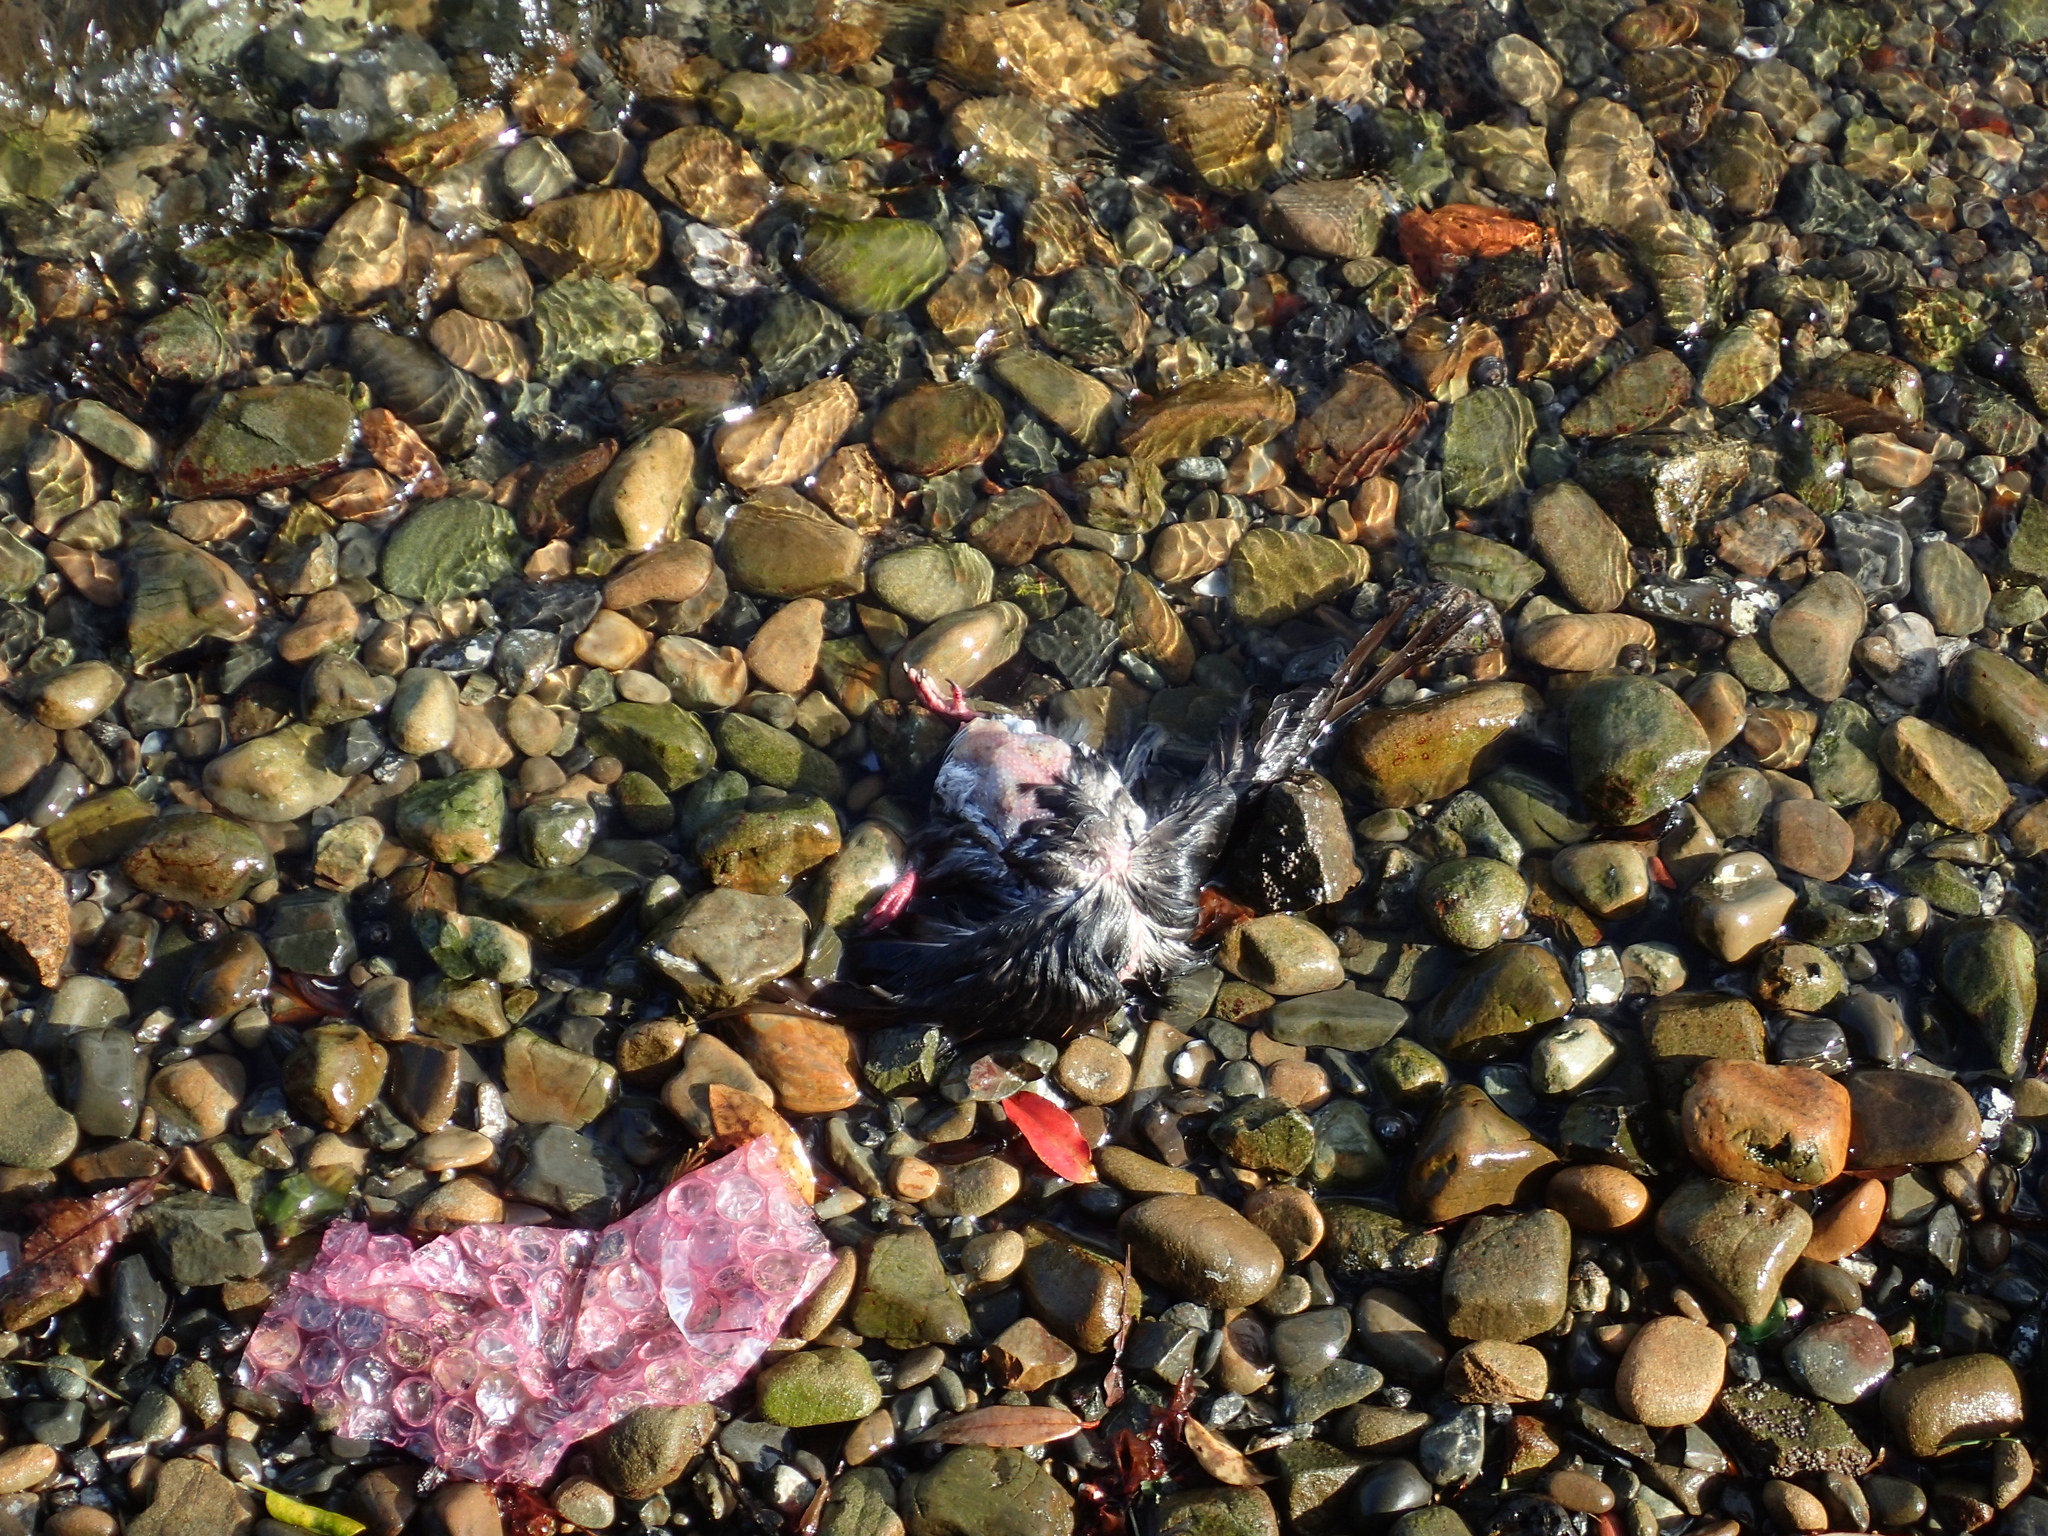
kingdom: Animalia
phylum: Chordata
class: Aves
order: Columbiformes
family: Columbidae
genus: Columba
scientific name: Columba livia
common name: Rock pigeon
